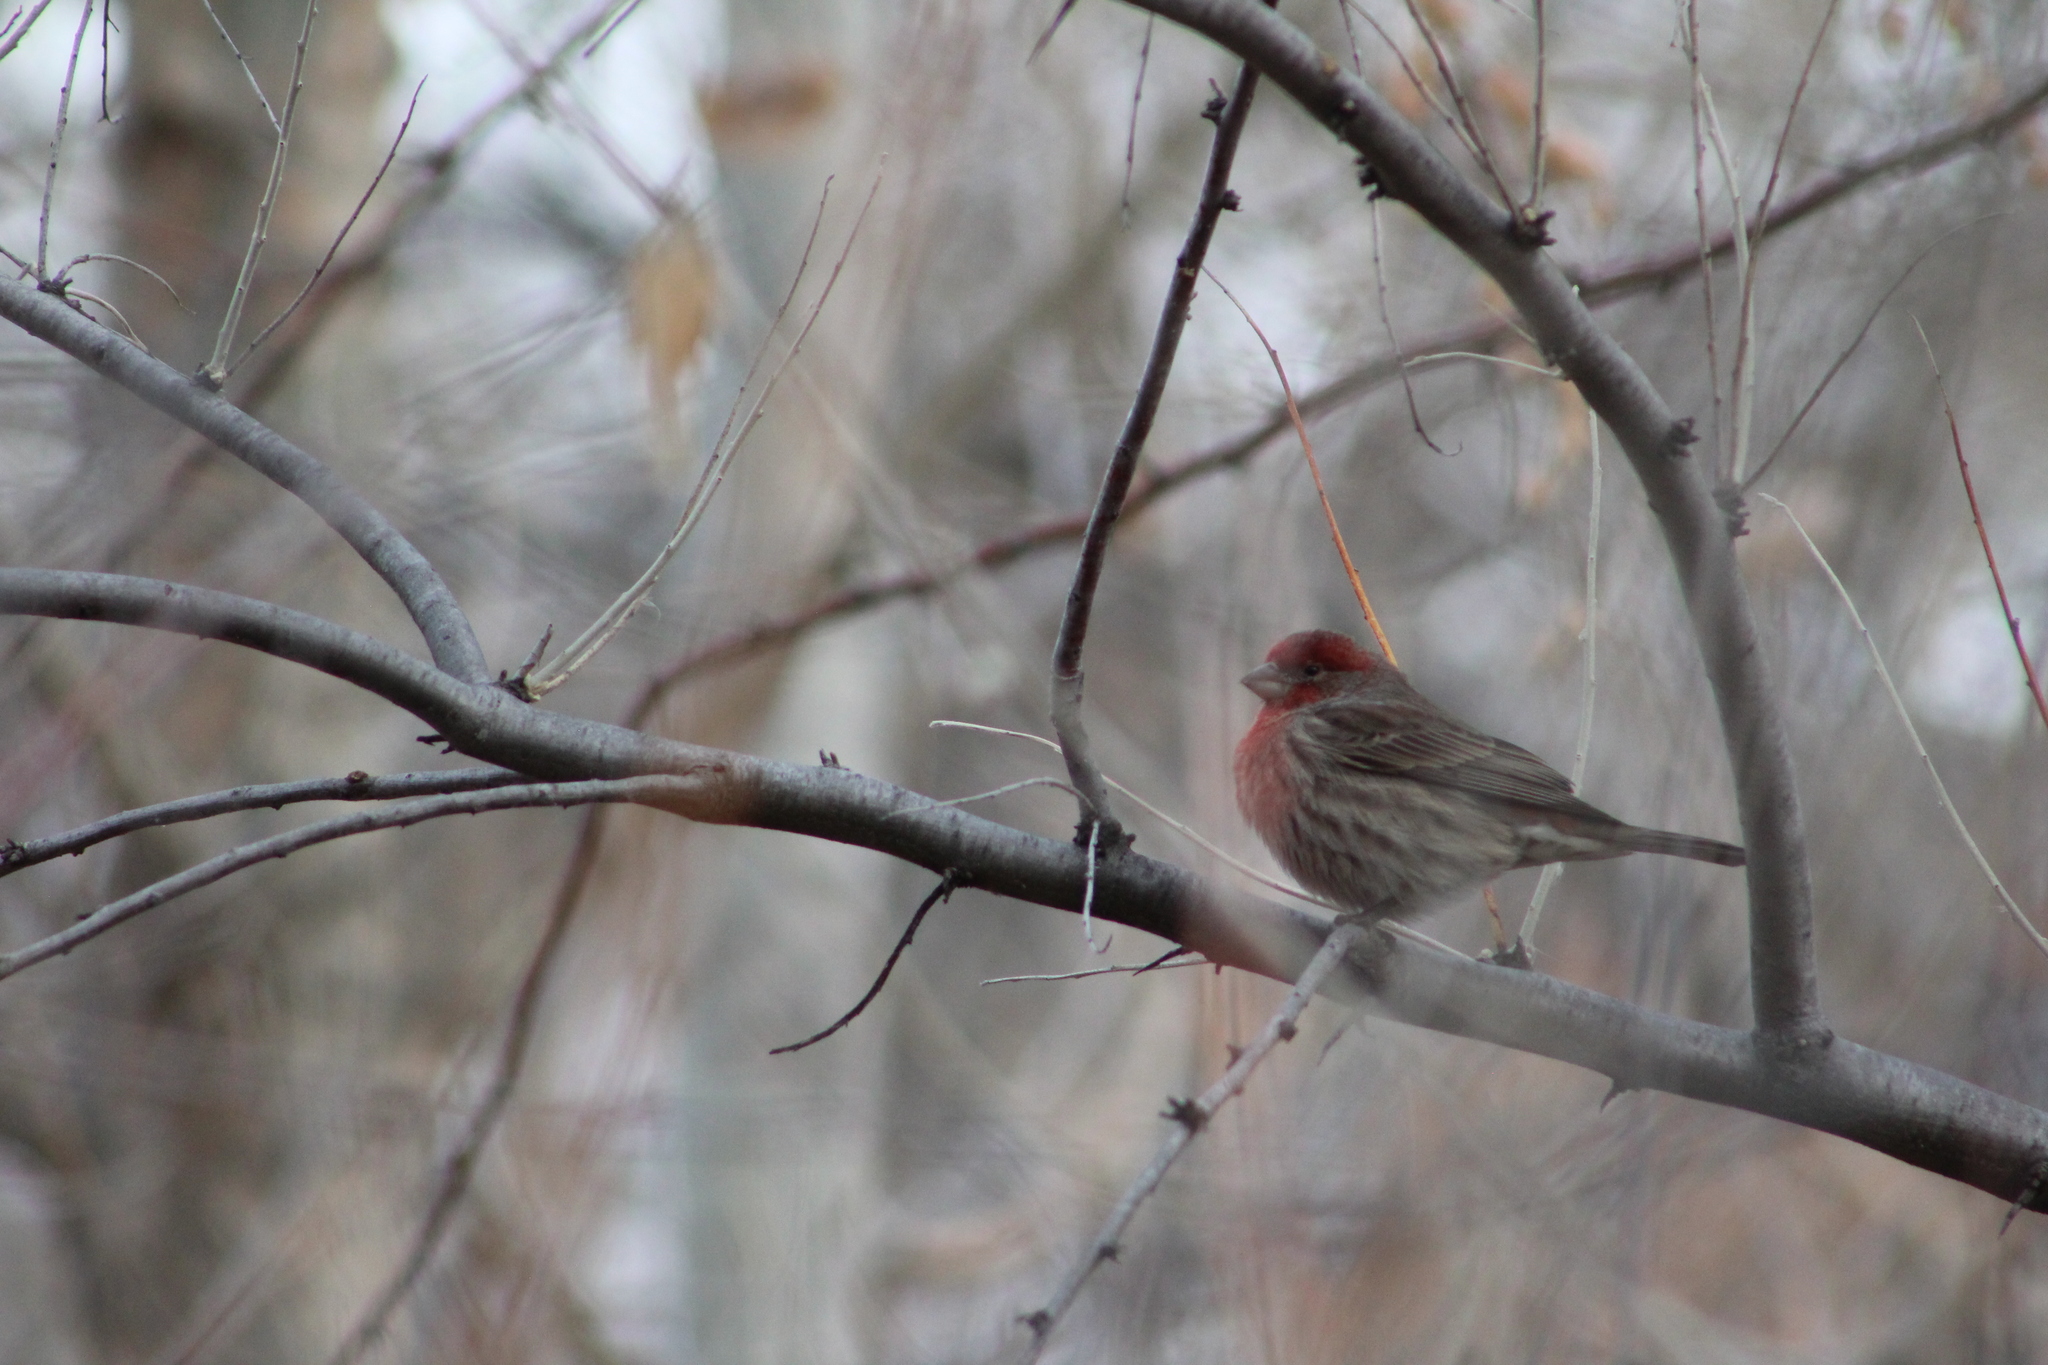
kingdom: Animalia
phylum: Chordata
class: Aves
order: Passeriformes
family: Fringillidae
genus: Haemorhous
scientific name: Haemorhous mexicanus
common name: House finch
